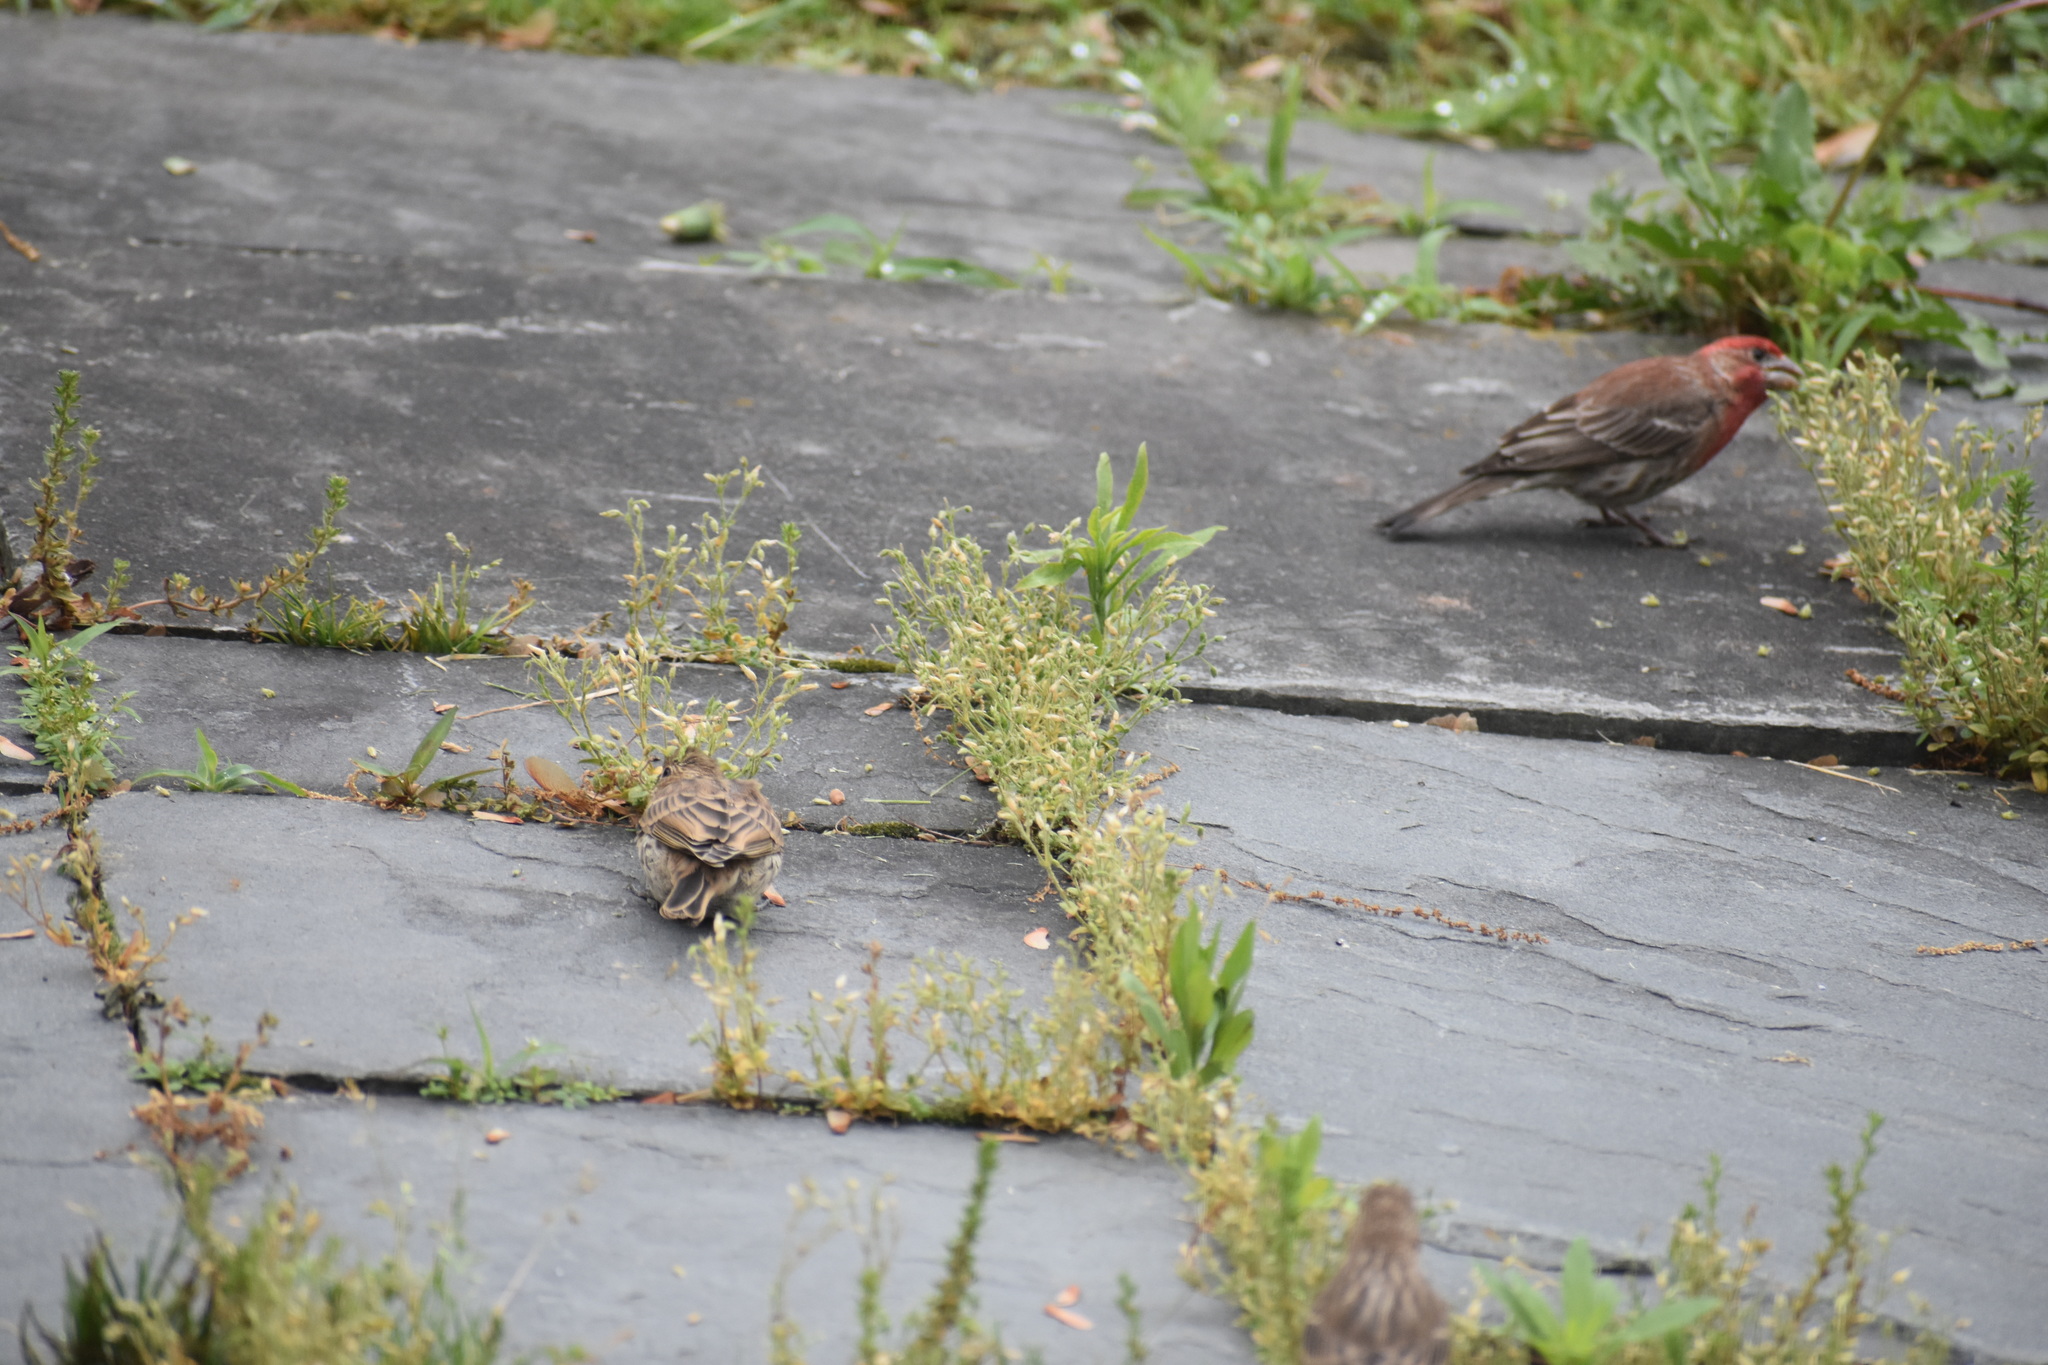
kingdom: Animalia
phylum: Chordata
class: Aves
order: Passeriformes
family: Fringillidae
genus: Haemorhous
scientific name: Haemorhous mexicanus
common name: House finch
